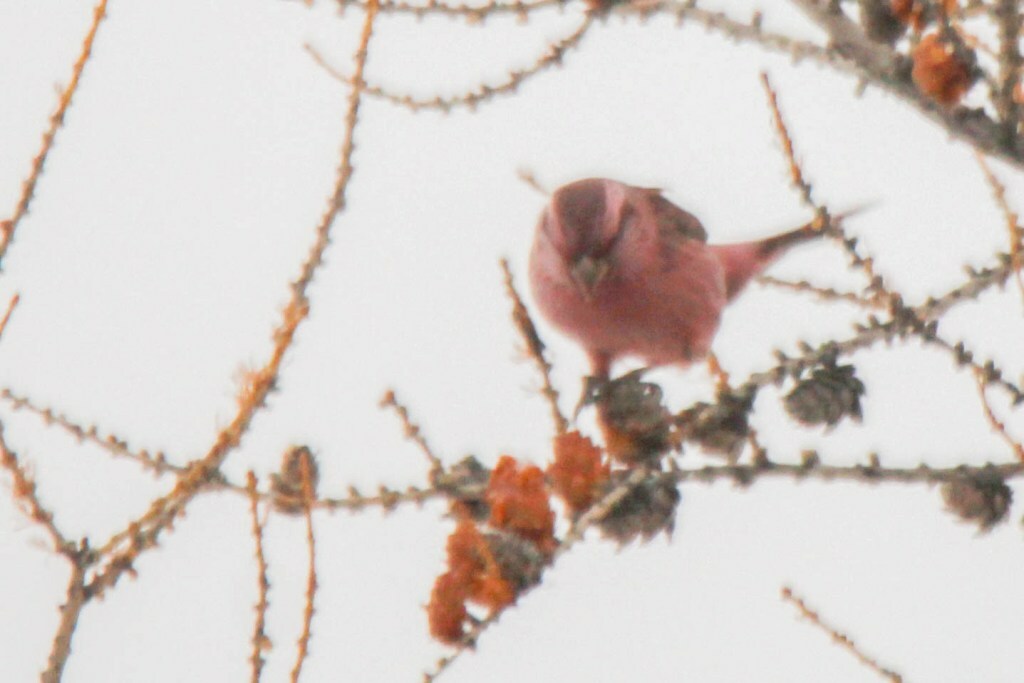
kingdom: Animalia
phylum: Chordata
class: Aves
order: Passeriformes
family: Fringillidae
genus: Carpodacus
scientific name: Carpodacus rhodochlamys
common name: Red-mantled rosefinch
